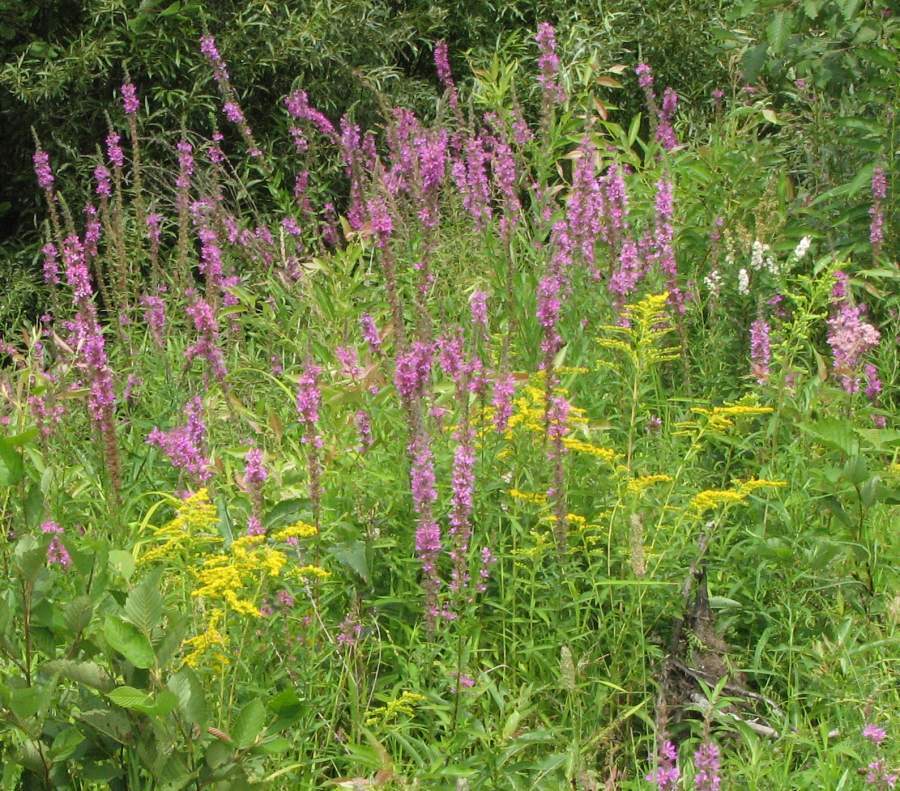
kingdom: Plantae
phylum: Tracheophyta
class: Magnoliopsida
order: Myrtales
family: Lythraceae
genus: Lythrum
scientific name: Lythrum salicaria
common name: Purple loosestrife
